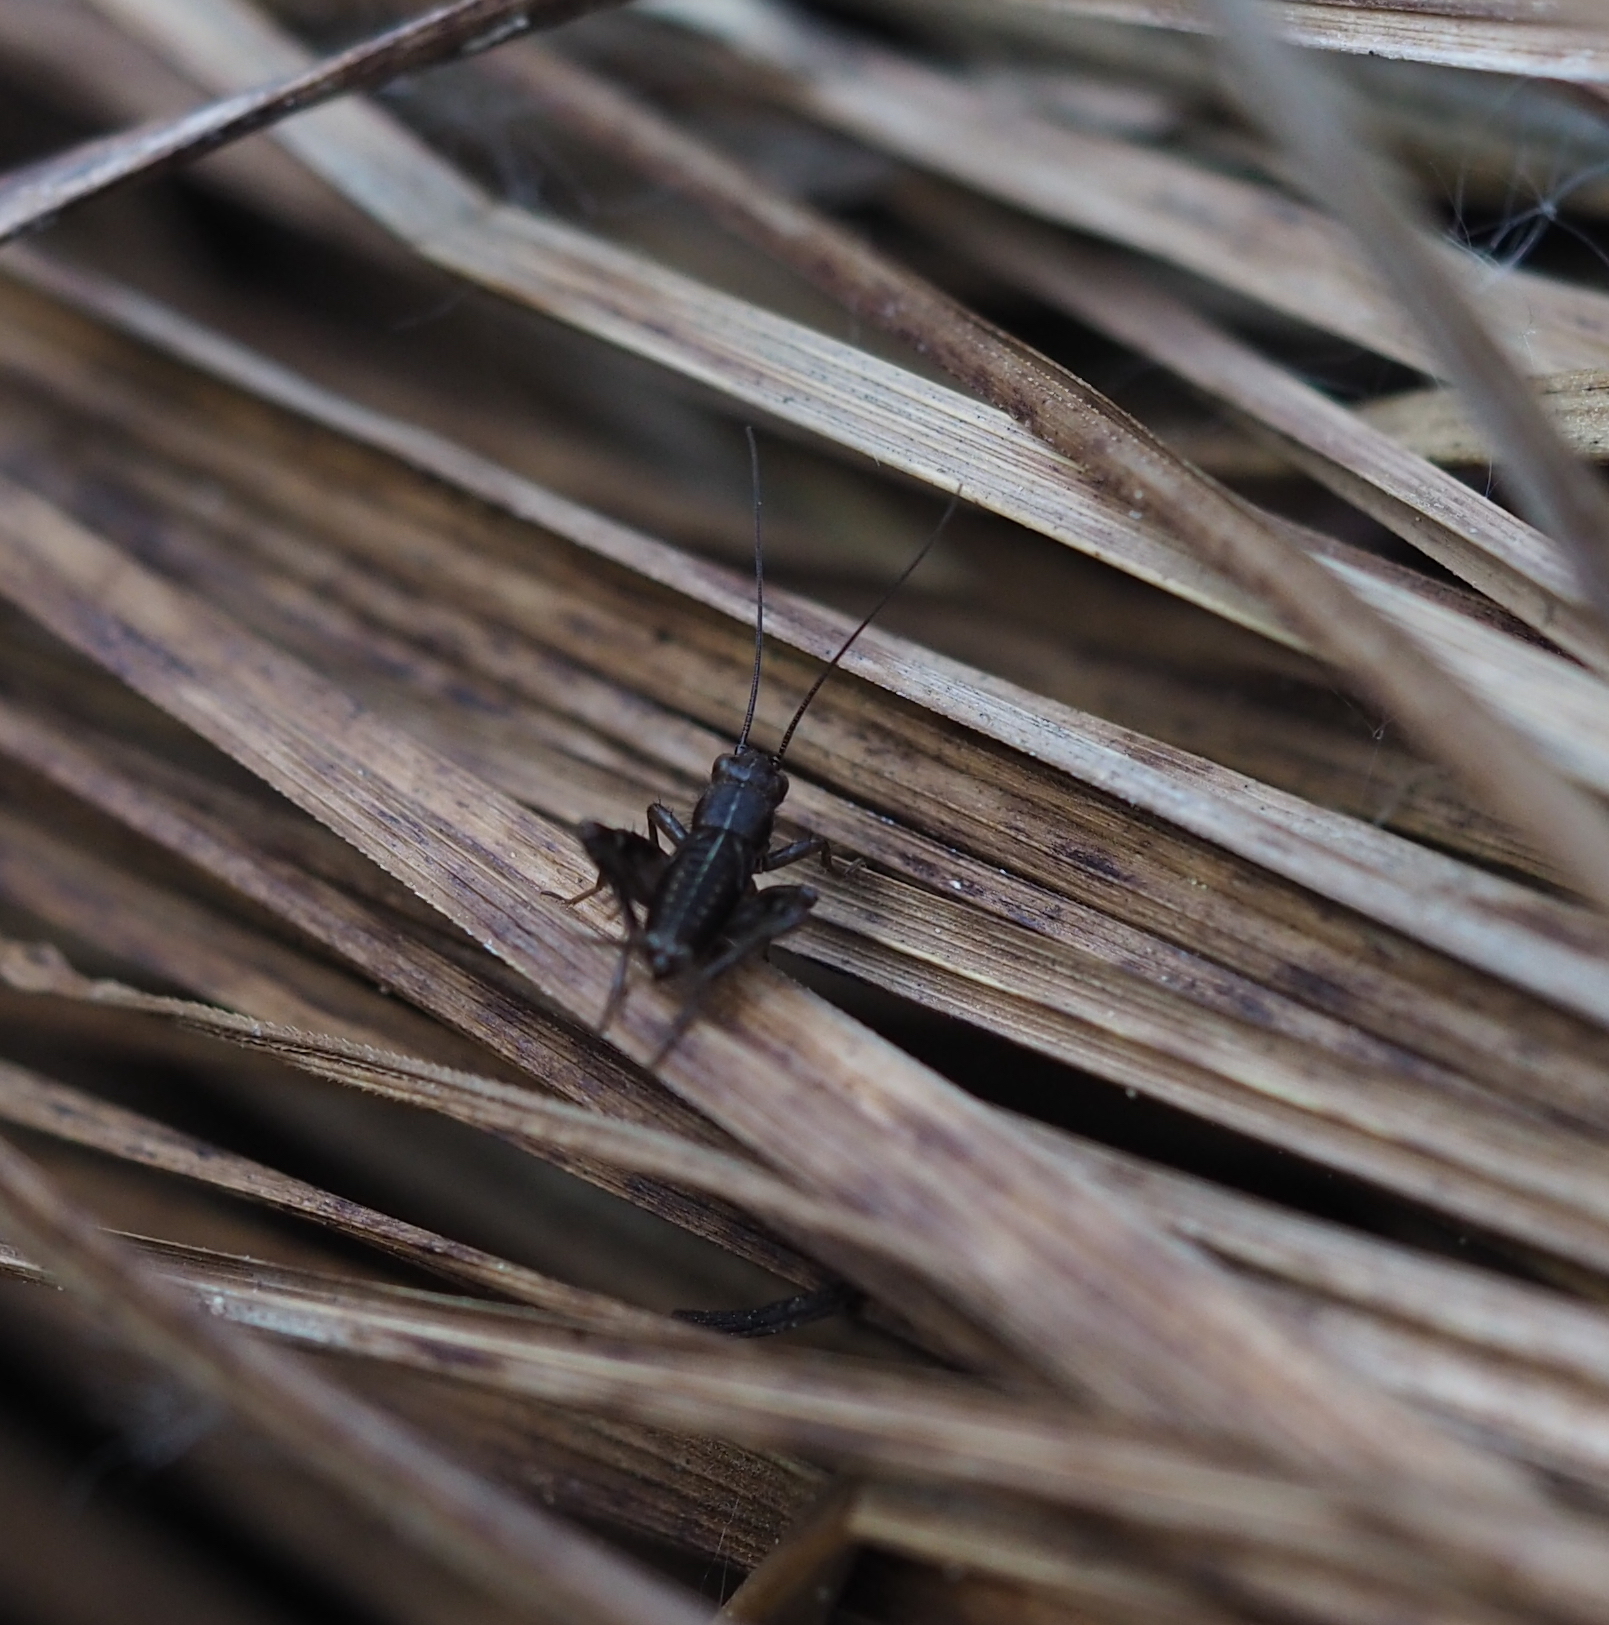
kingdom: Animalia
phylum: Arthropoda
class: Insecta
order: Orthoptera
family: Trigonidiidae
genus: Pteronemobius
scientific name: Pteronemobius heydenii
